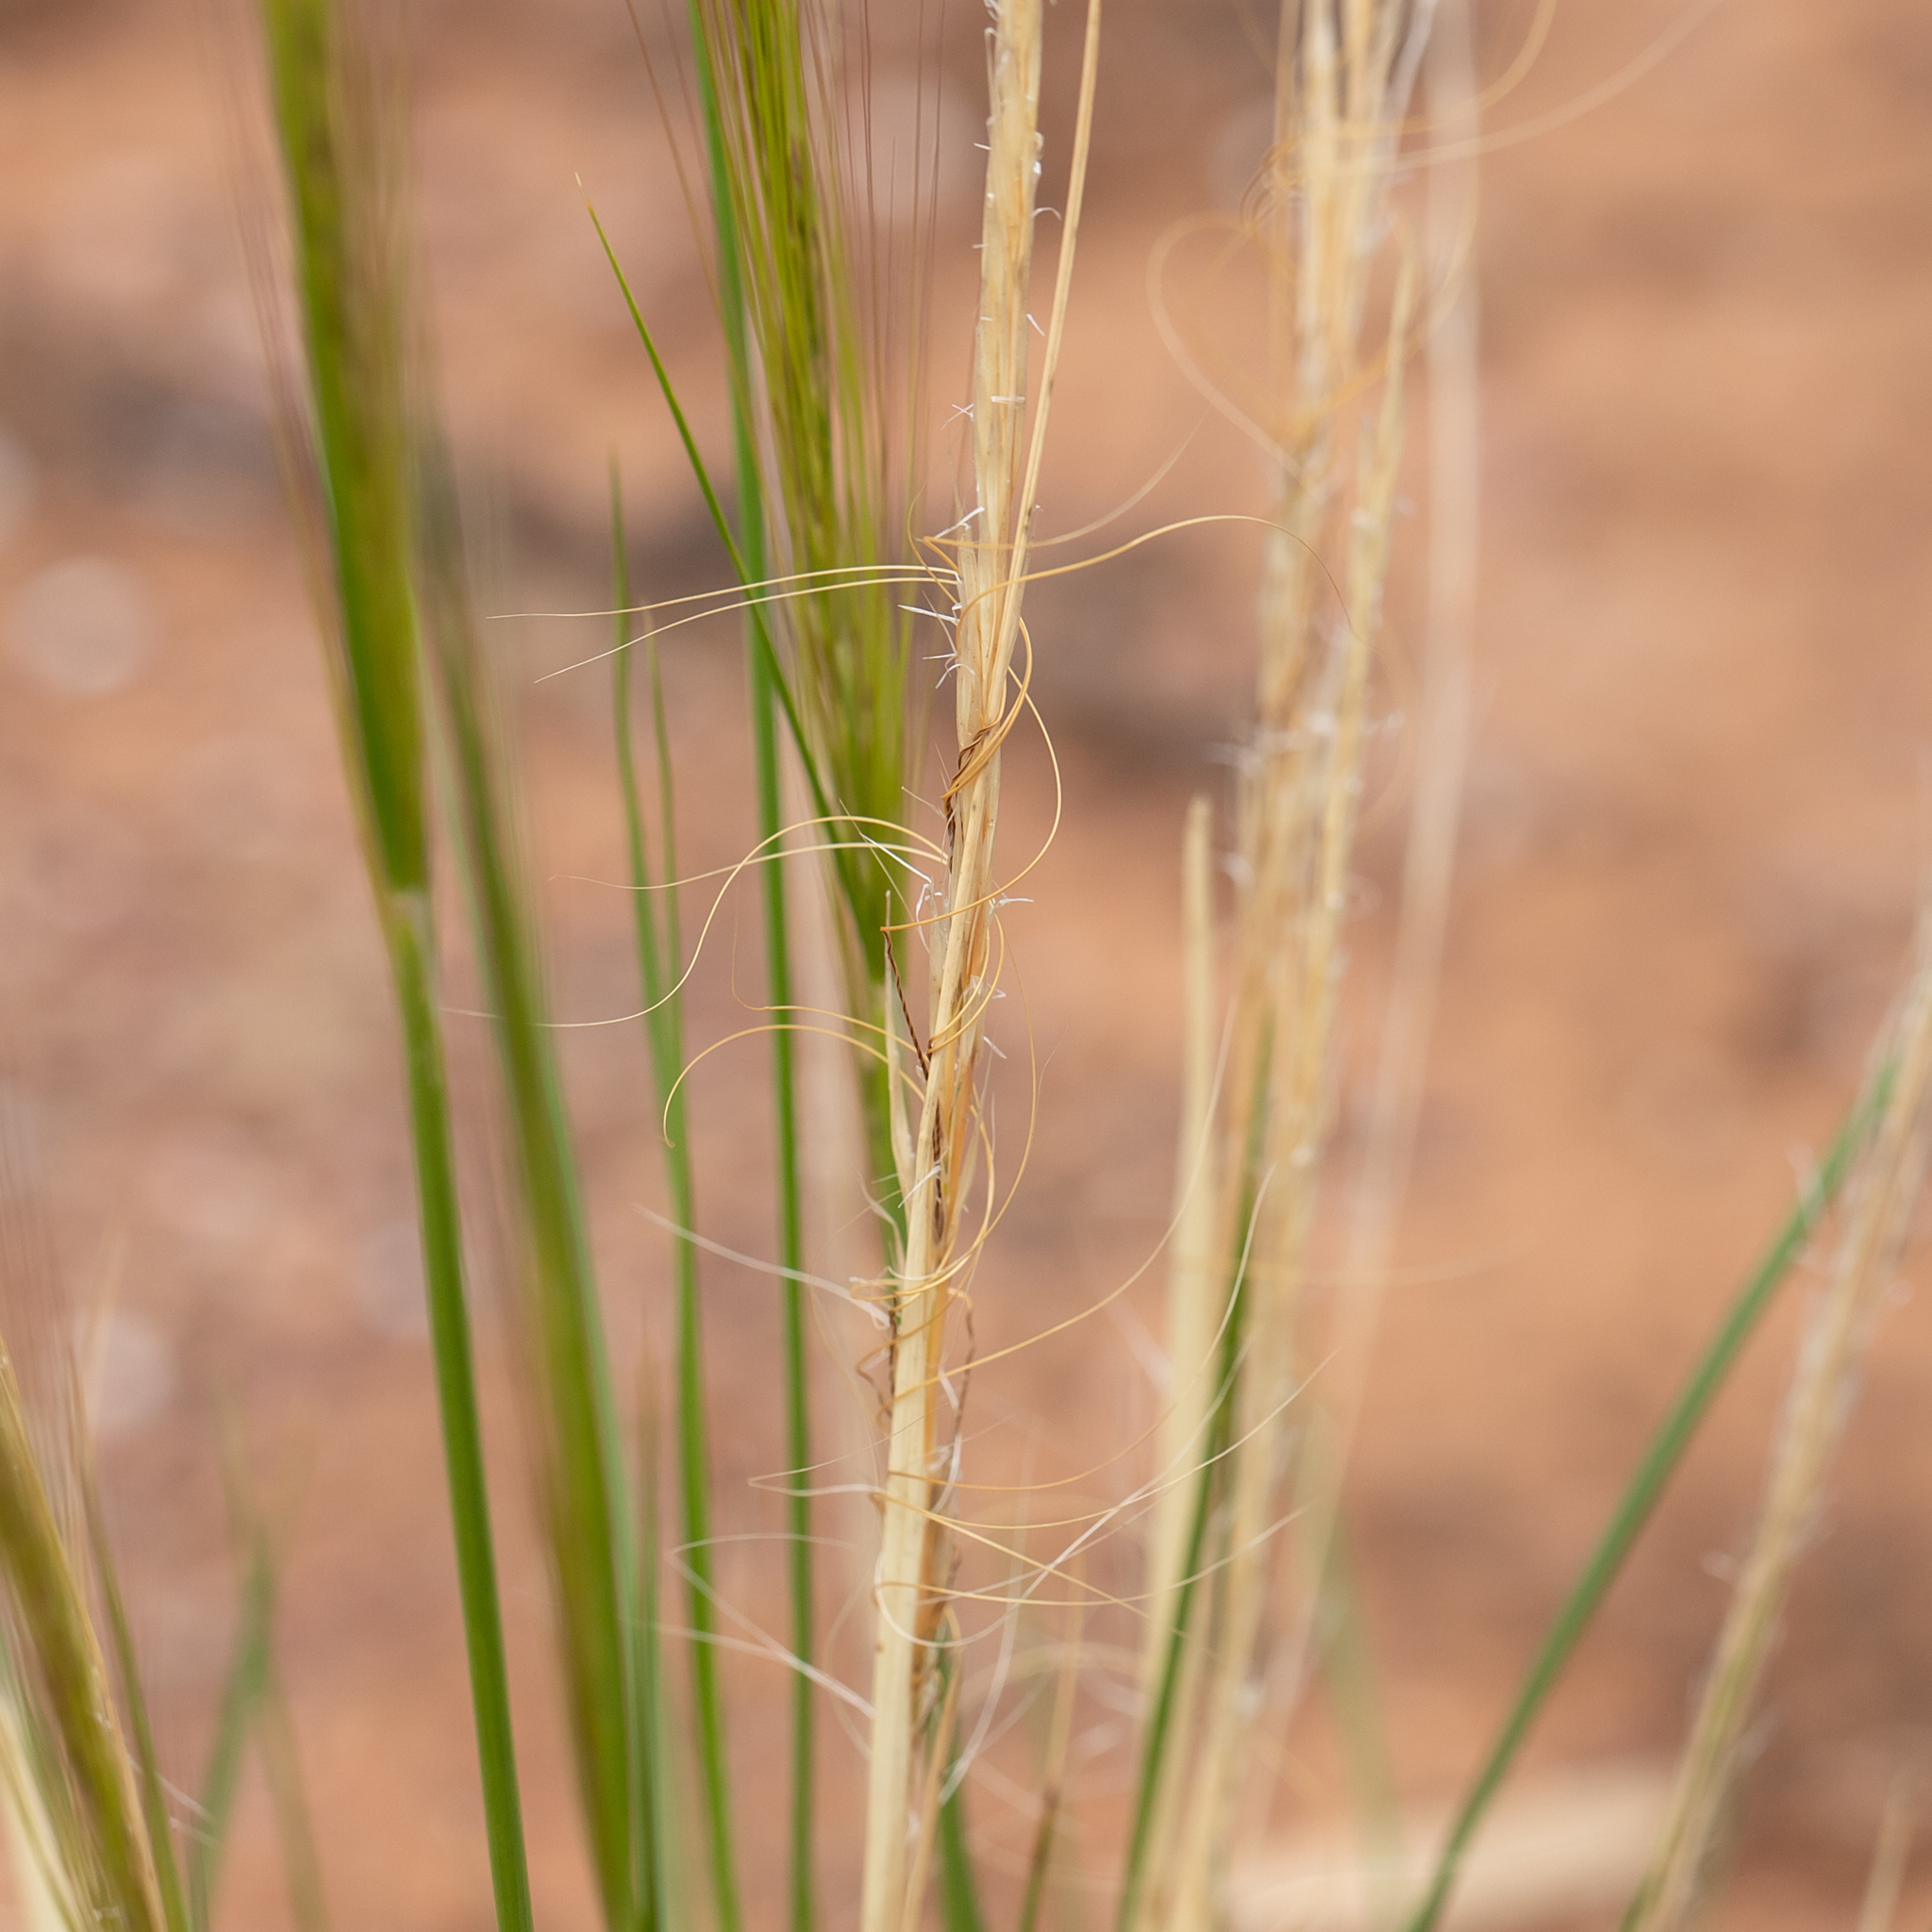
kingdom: Plantae
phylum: Tracheophyta
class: Liliopsida
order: Poales
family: Poaceae
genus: Austrostipa
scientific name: Austrostipa nitida
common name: Balcarra grass
